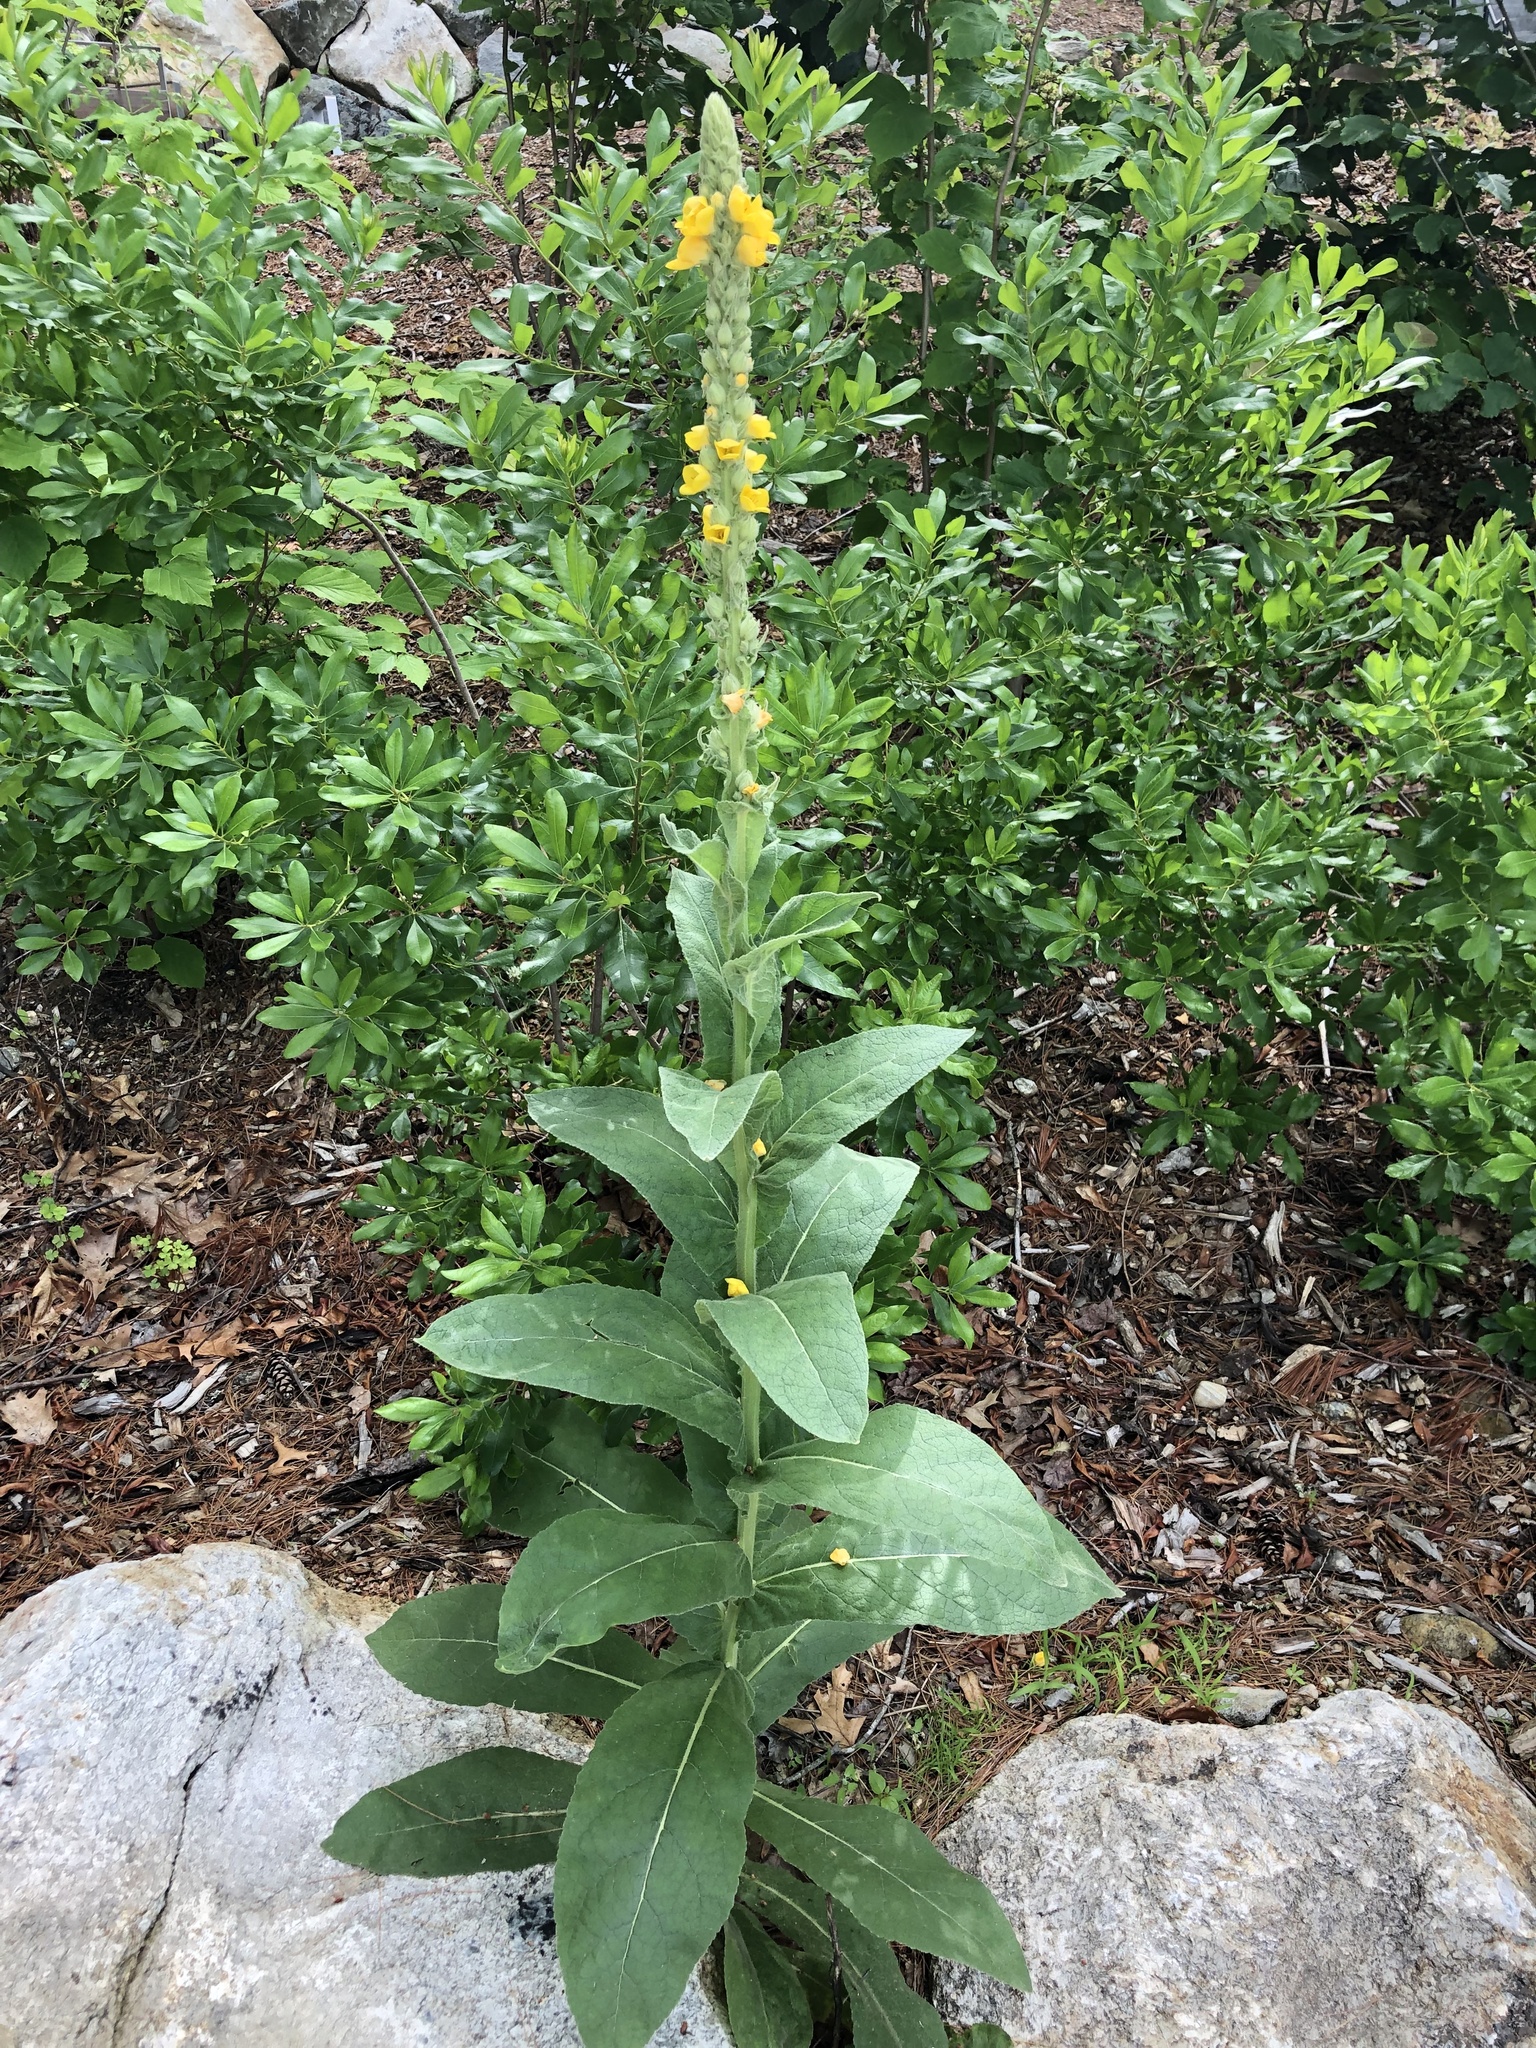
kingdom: Plantae
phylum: Tracheophyta
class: Magnoliopsida
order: Lamiales
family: Scrophulariaceae
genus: Verbascum
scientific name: Verbascum thapsus
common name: Common mullein
